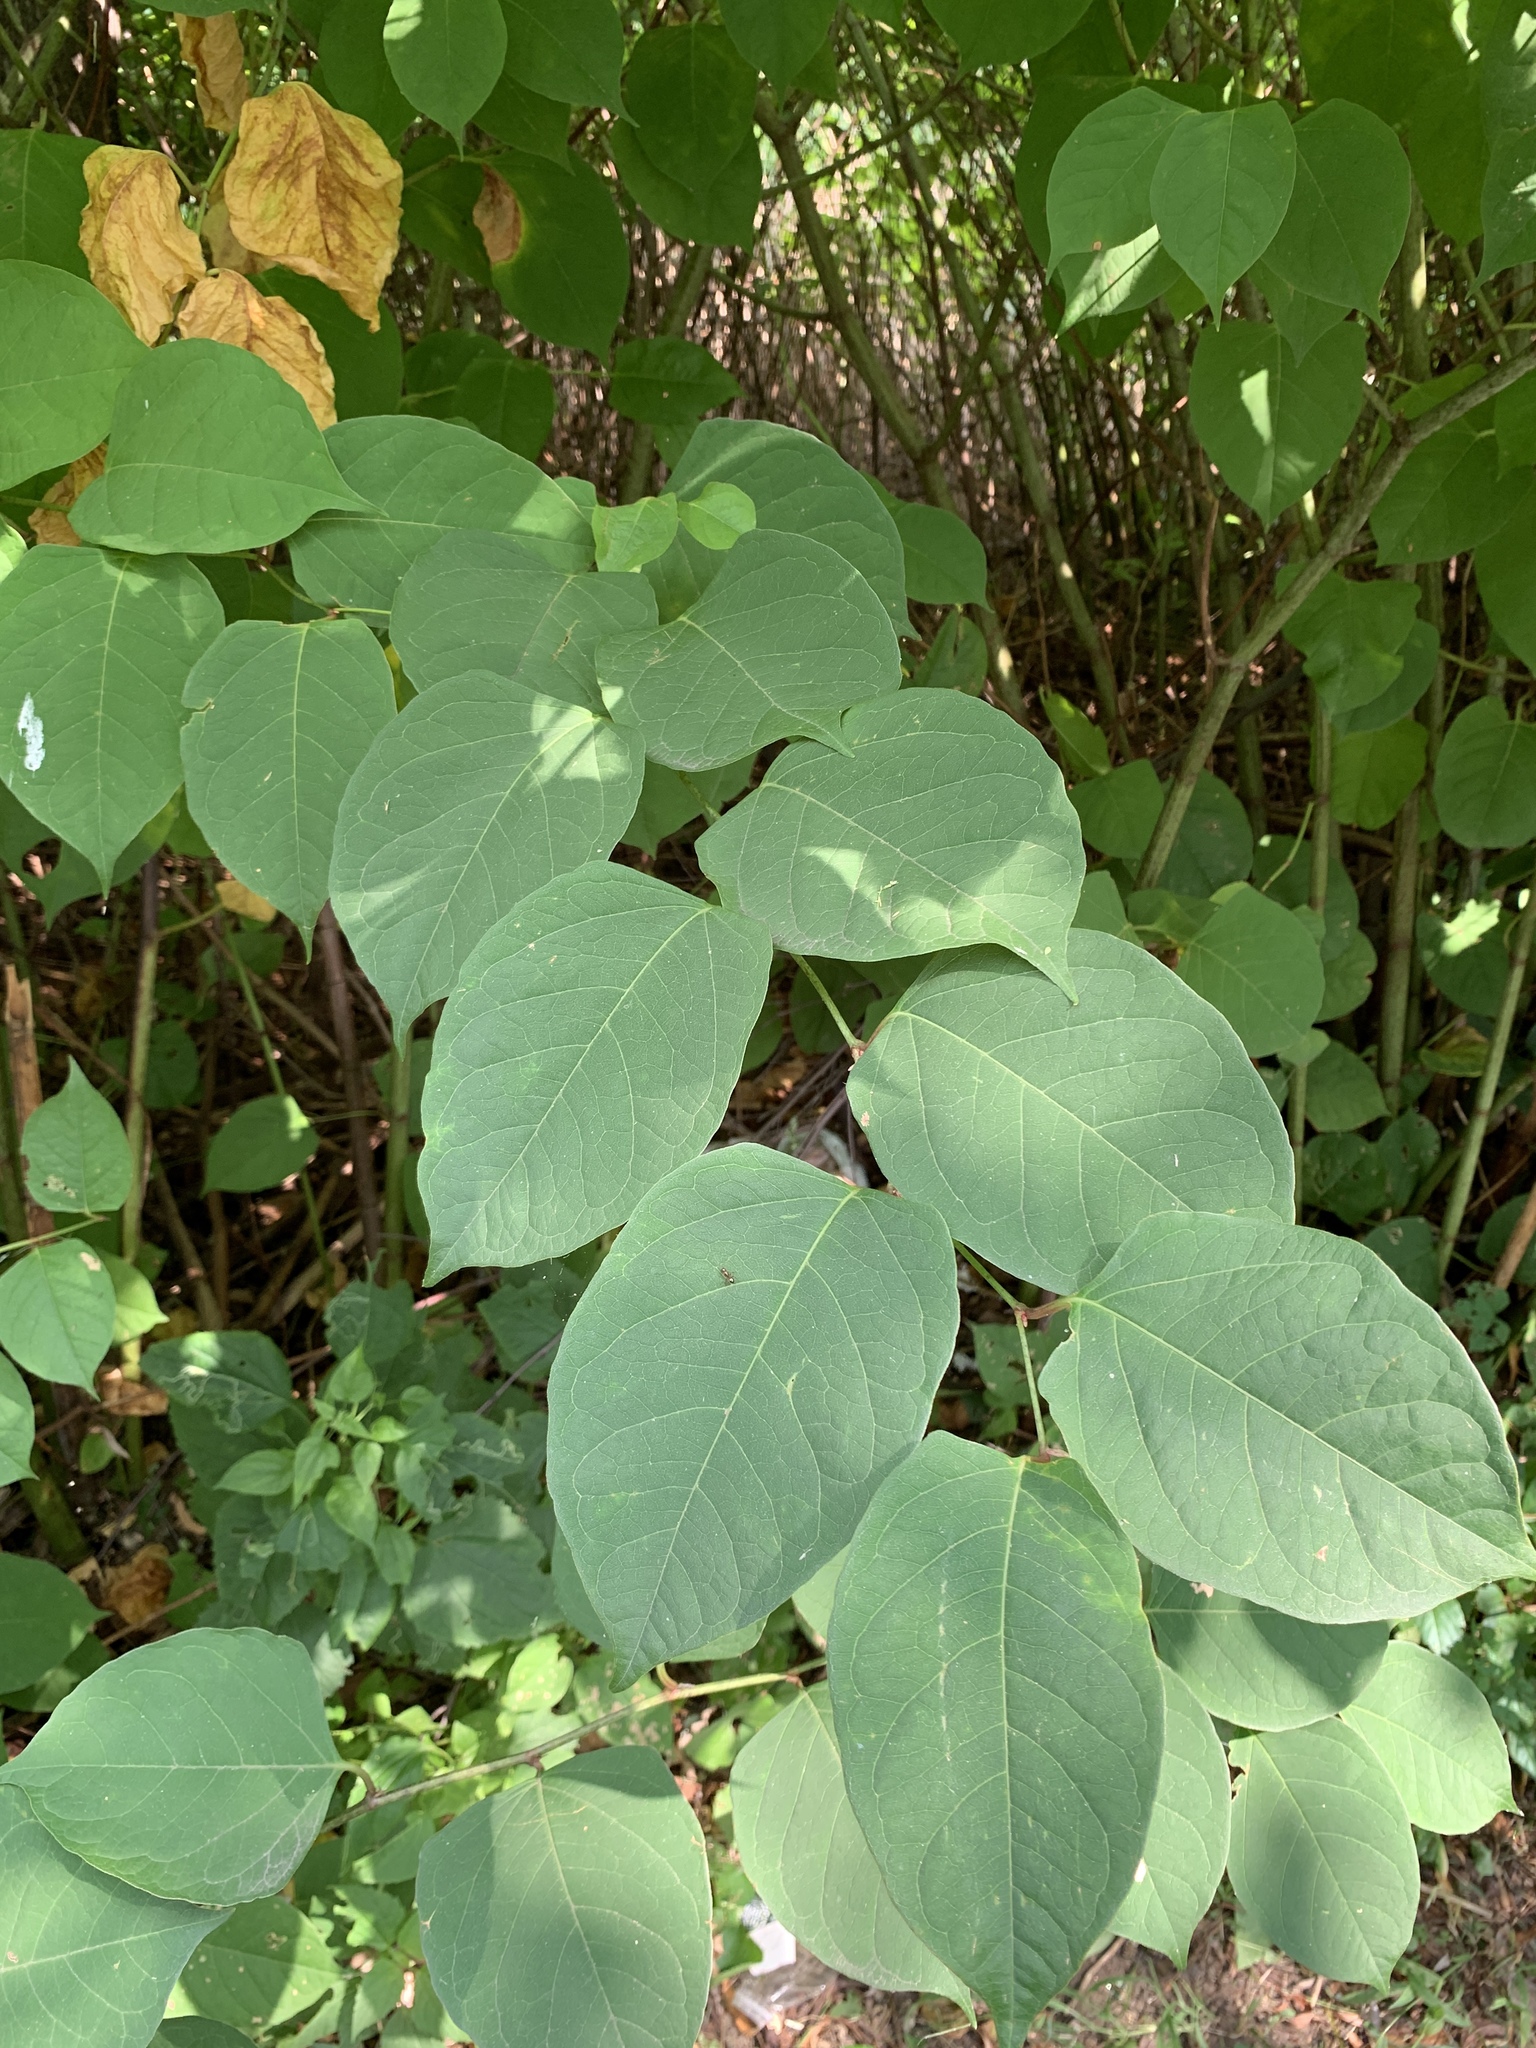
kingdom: Plantae
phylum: Tracheophyta
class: Magnoliopsida
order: Caryophyllales
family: Polygonaceae
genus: Reynoutria
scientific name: Reynoutria japonica
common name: Japanese knotweed
